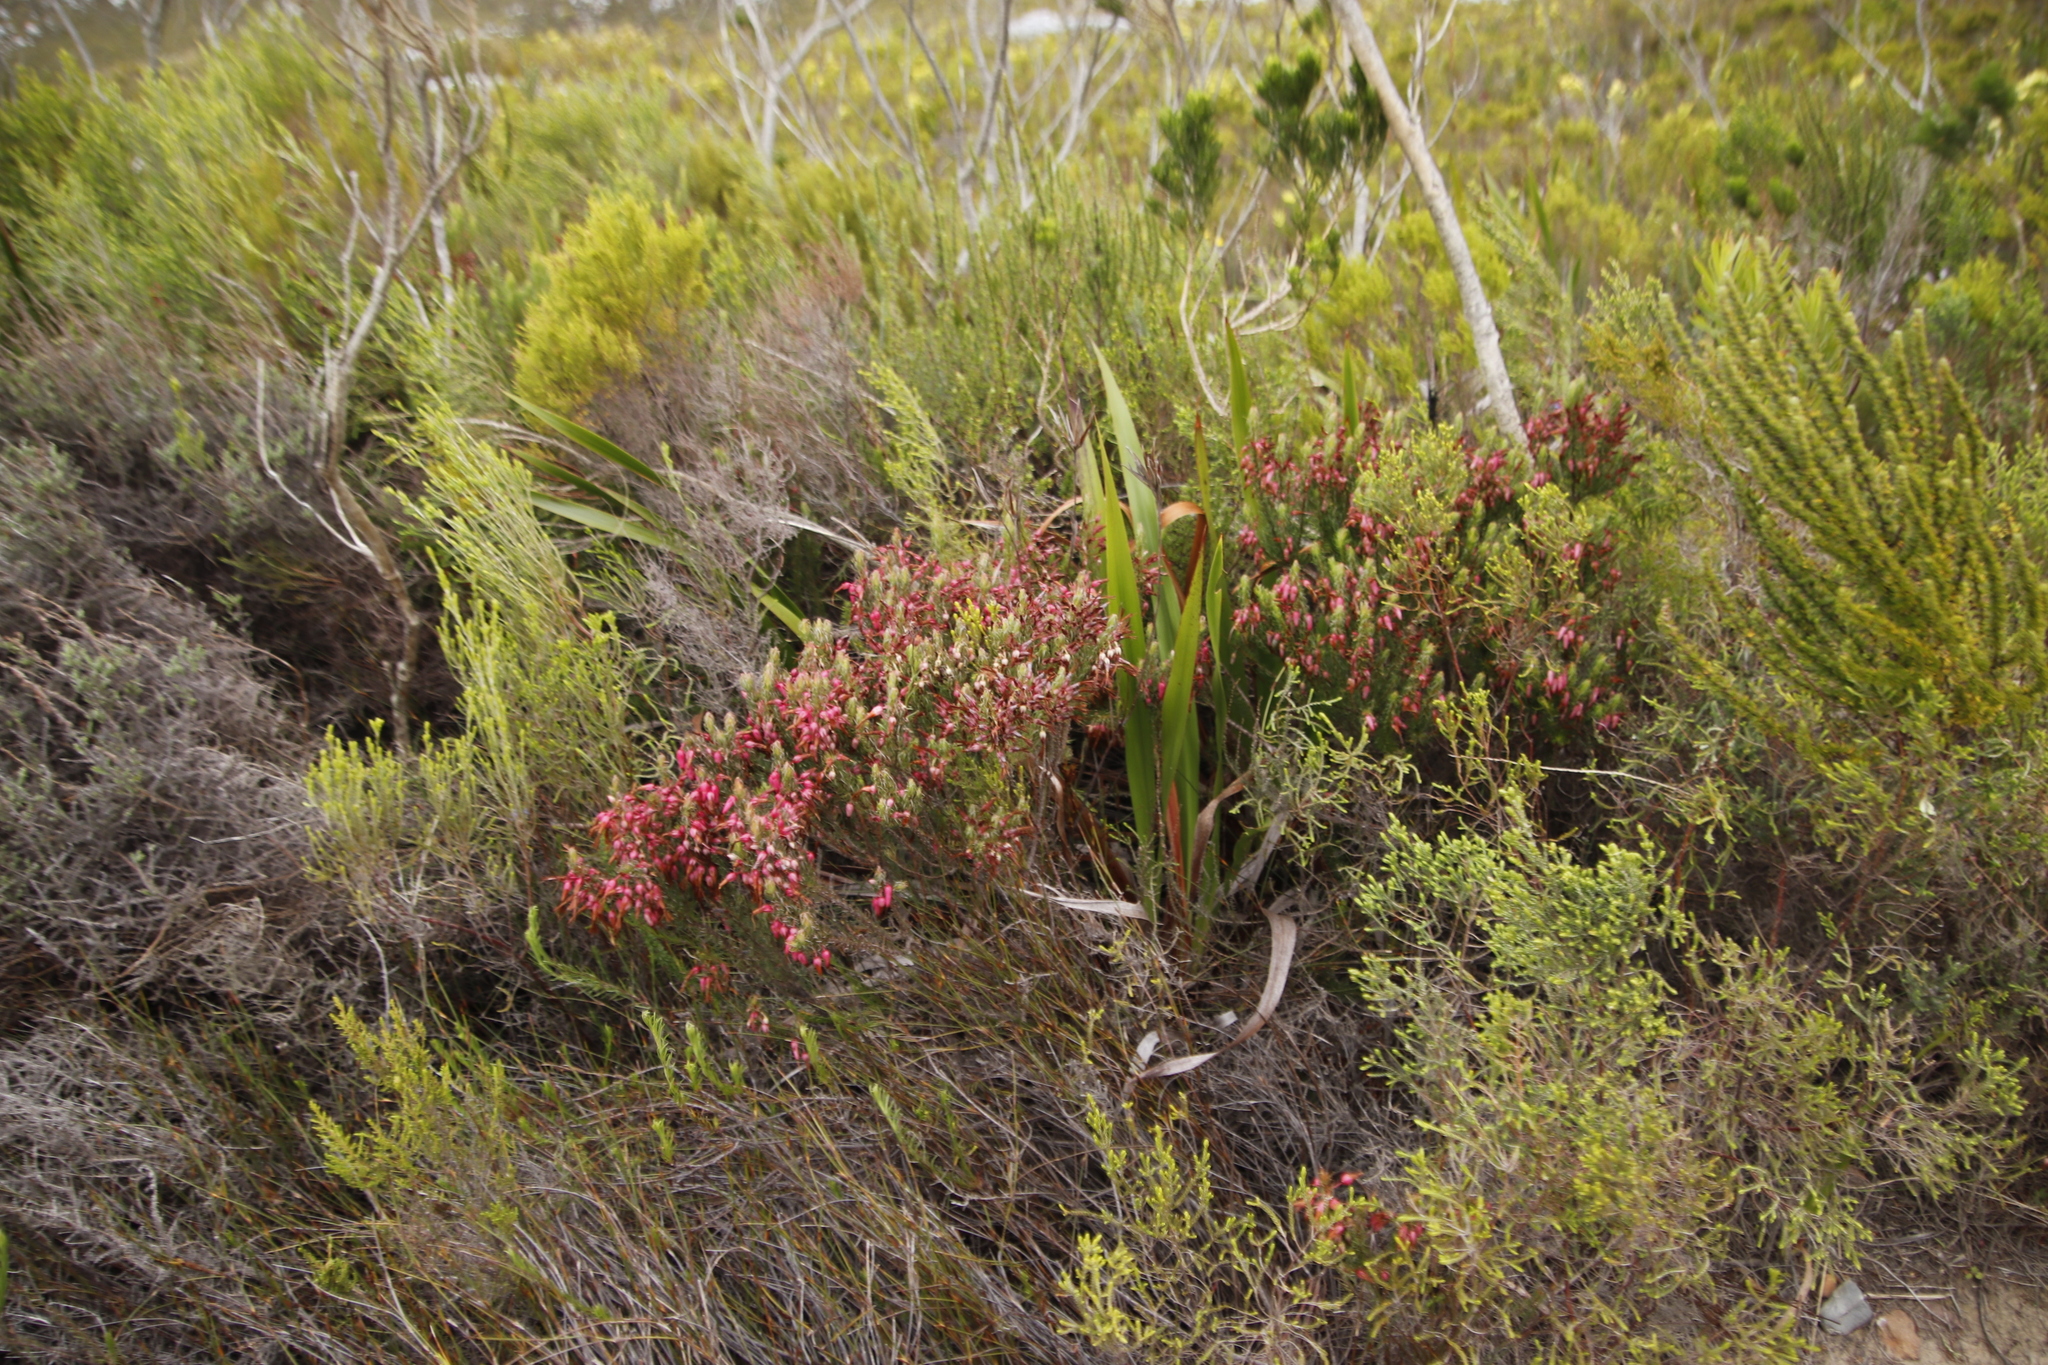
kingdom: Plantae
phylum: Tracheophyta
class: Magnoliopsida
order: Ericales
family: Ericaceae
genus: Erica
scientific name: Erica plukenetii
